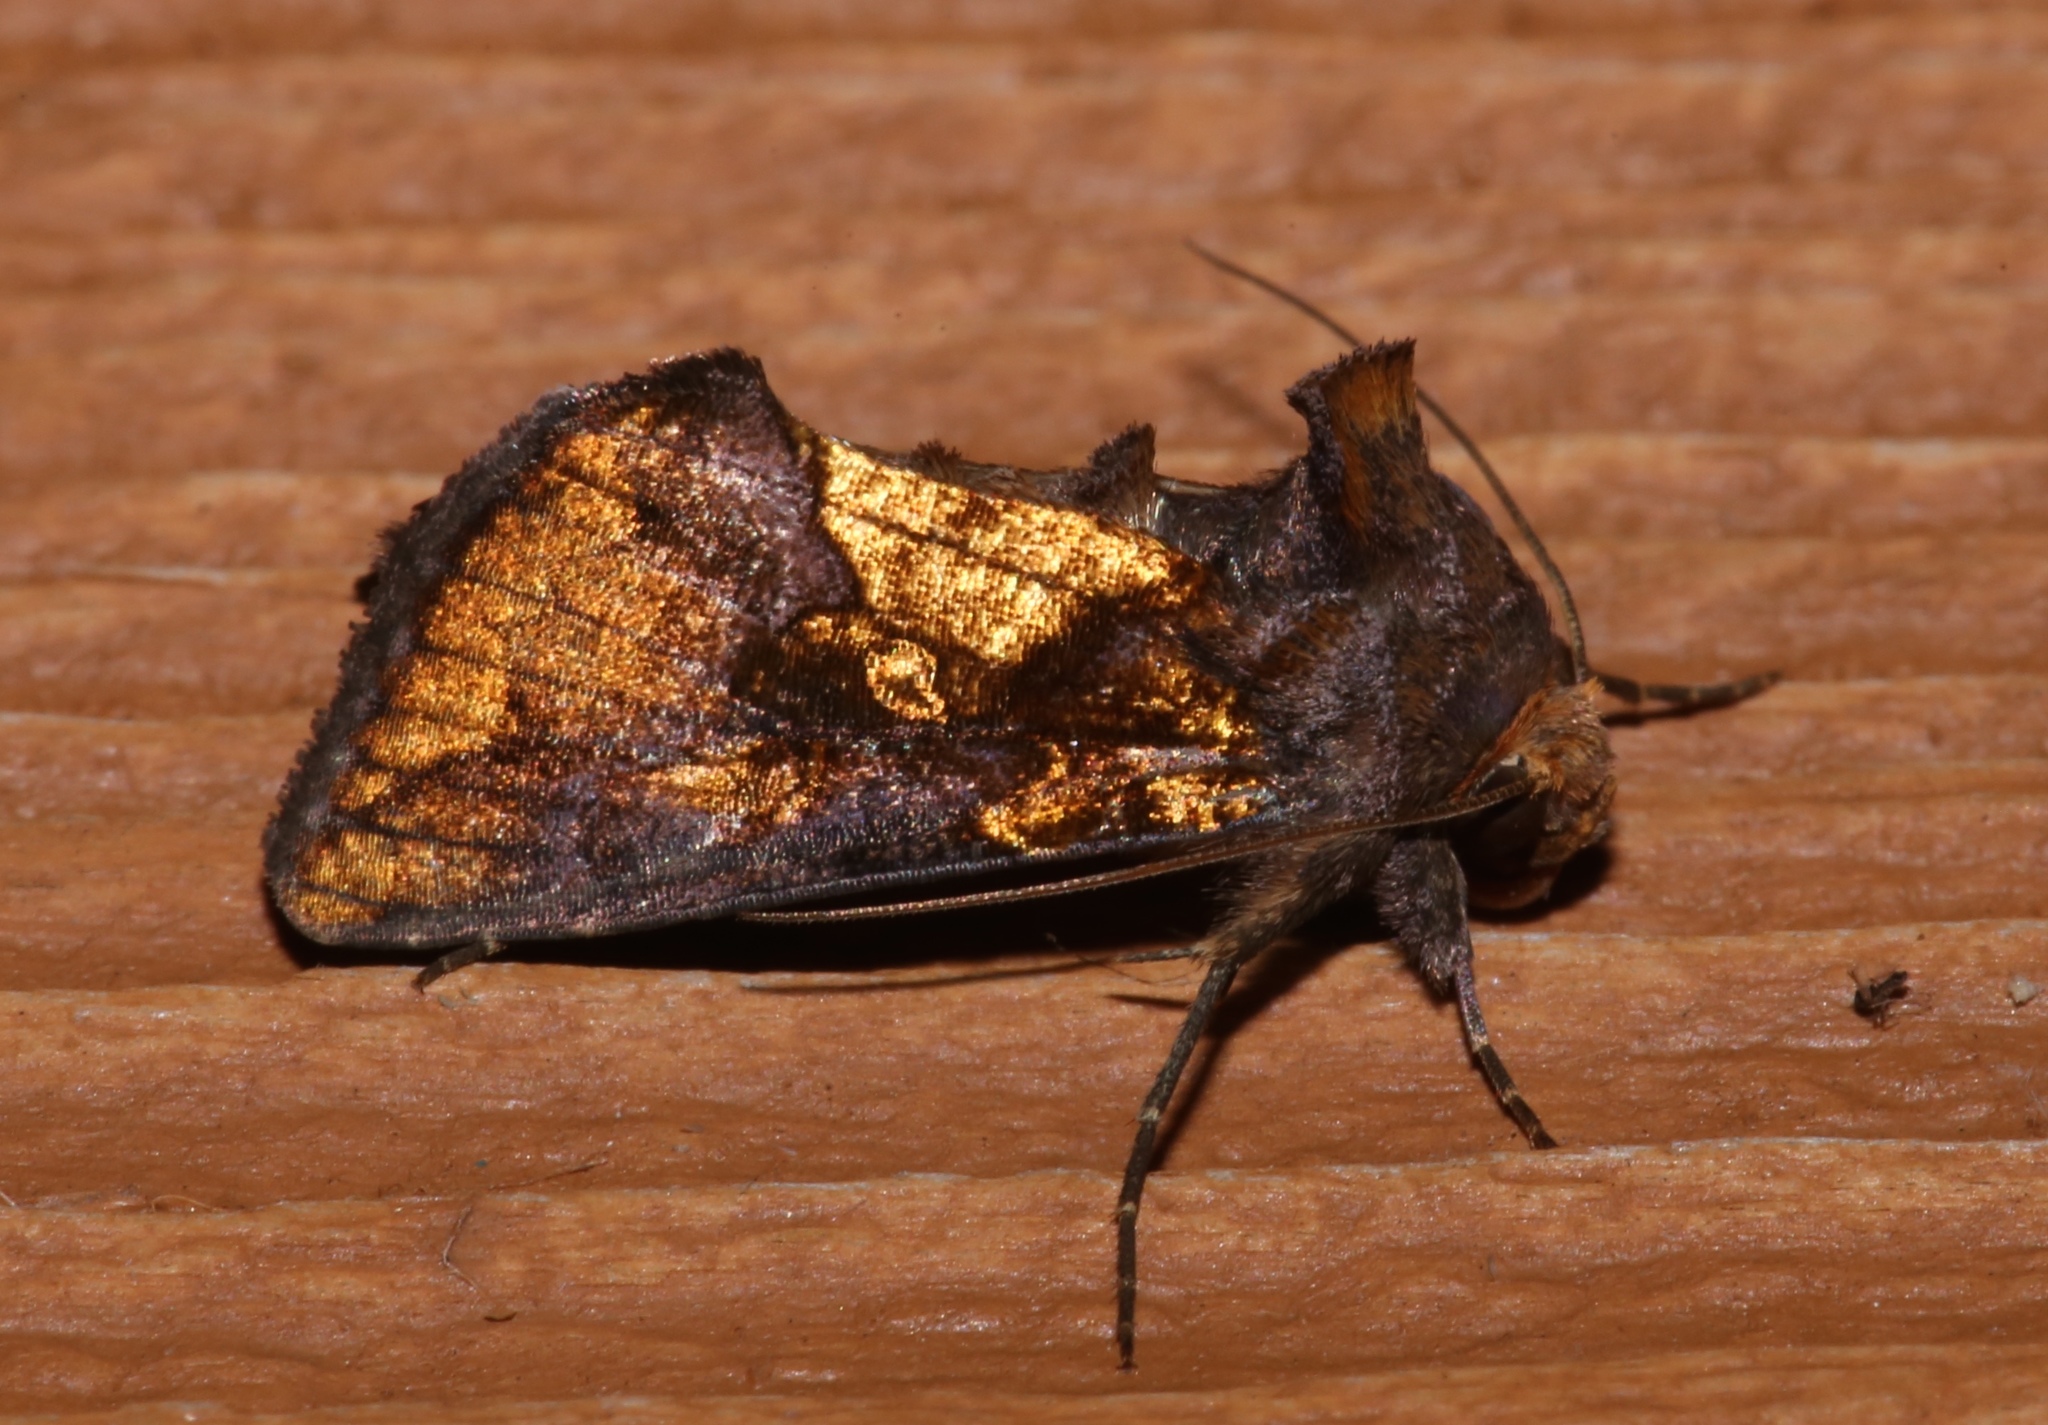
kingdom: Animalia
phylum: Arthropoda
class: Insecta
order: Lepidoptera
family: Noctuidae
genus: Argyrogramma
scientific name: Argyrogramma verruca
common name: Golden looper moth
